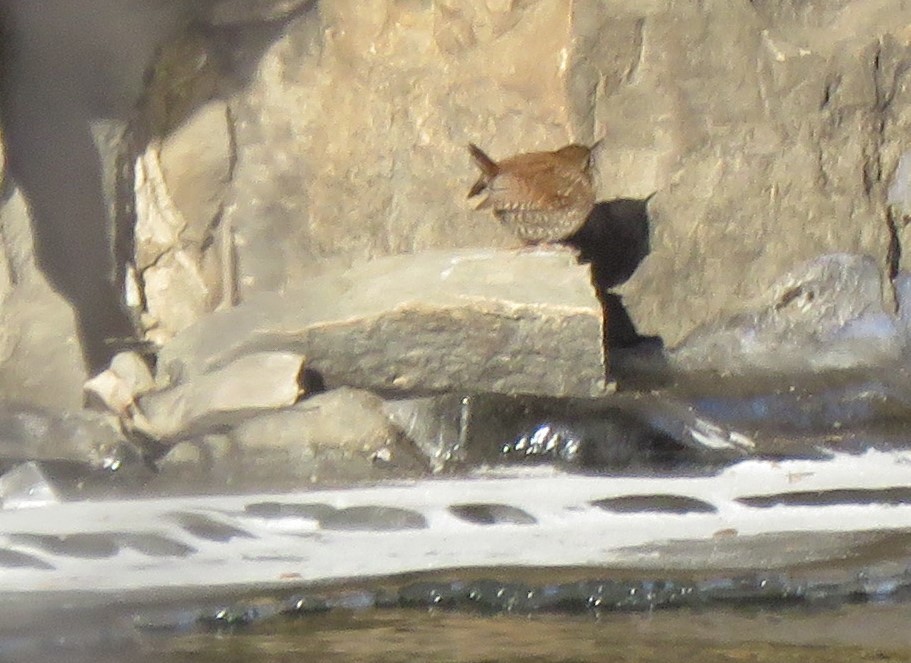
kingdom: Animalia
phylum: Chordata
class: Aves
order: Passeriformes
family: Troglodytidae
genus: Troglodytes
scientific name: Troglodytes hiemalis
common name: Winter wren
